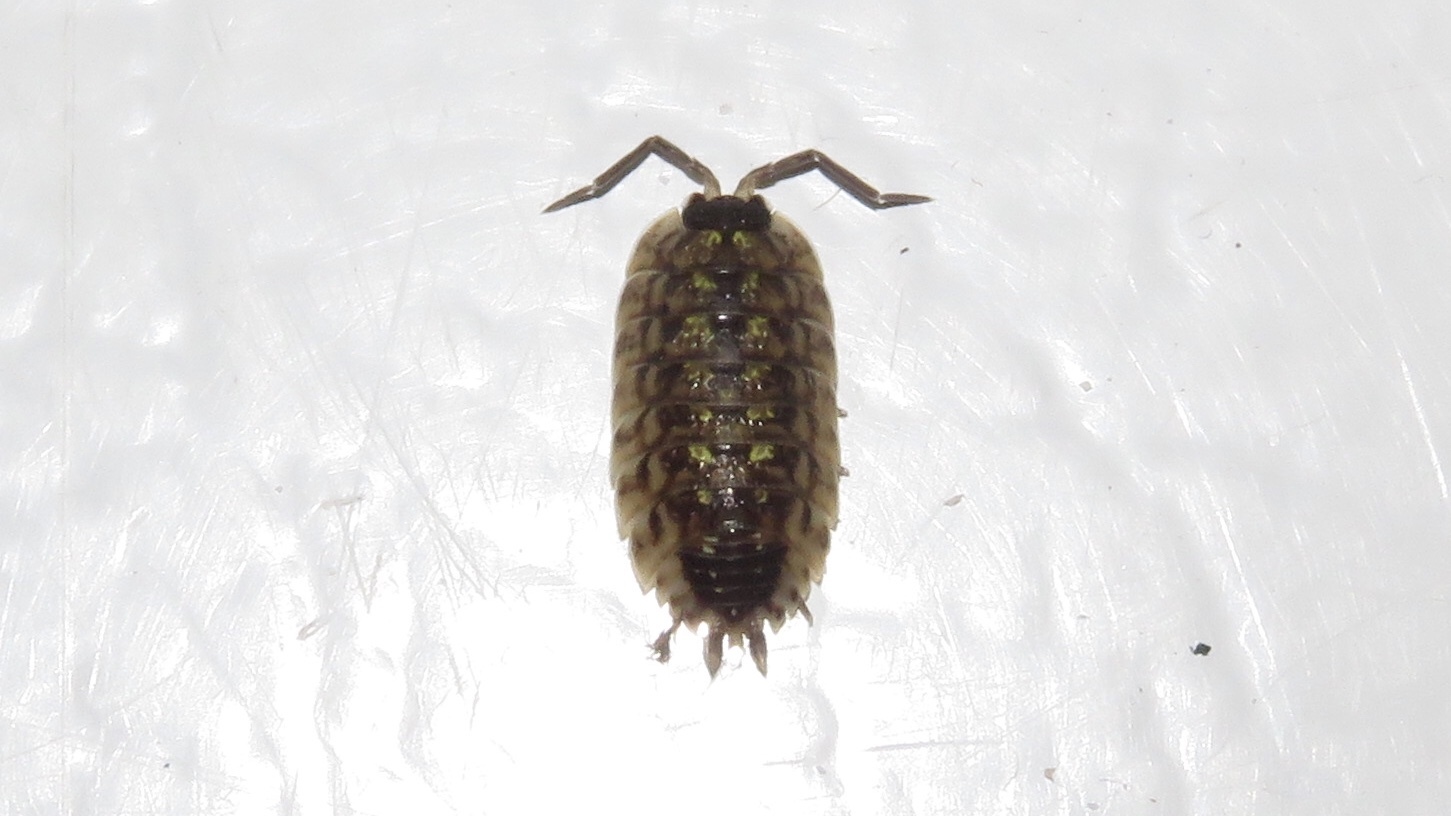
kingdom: Animalia
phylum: Arthropoda
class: Malacostraca
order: Isopoda
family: Porcellionidae
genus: Porcellio
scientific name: Porcellio spinicornis
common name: Painted woodlouse
